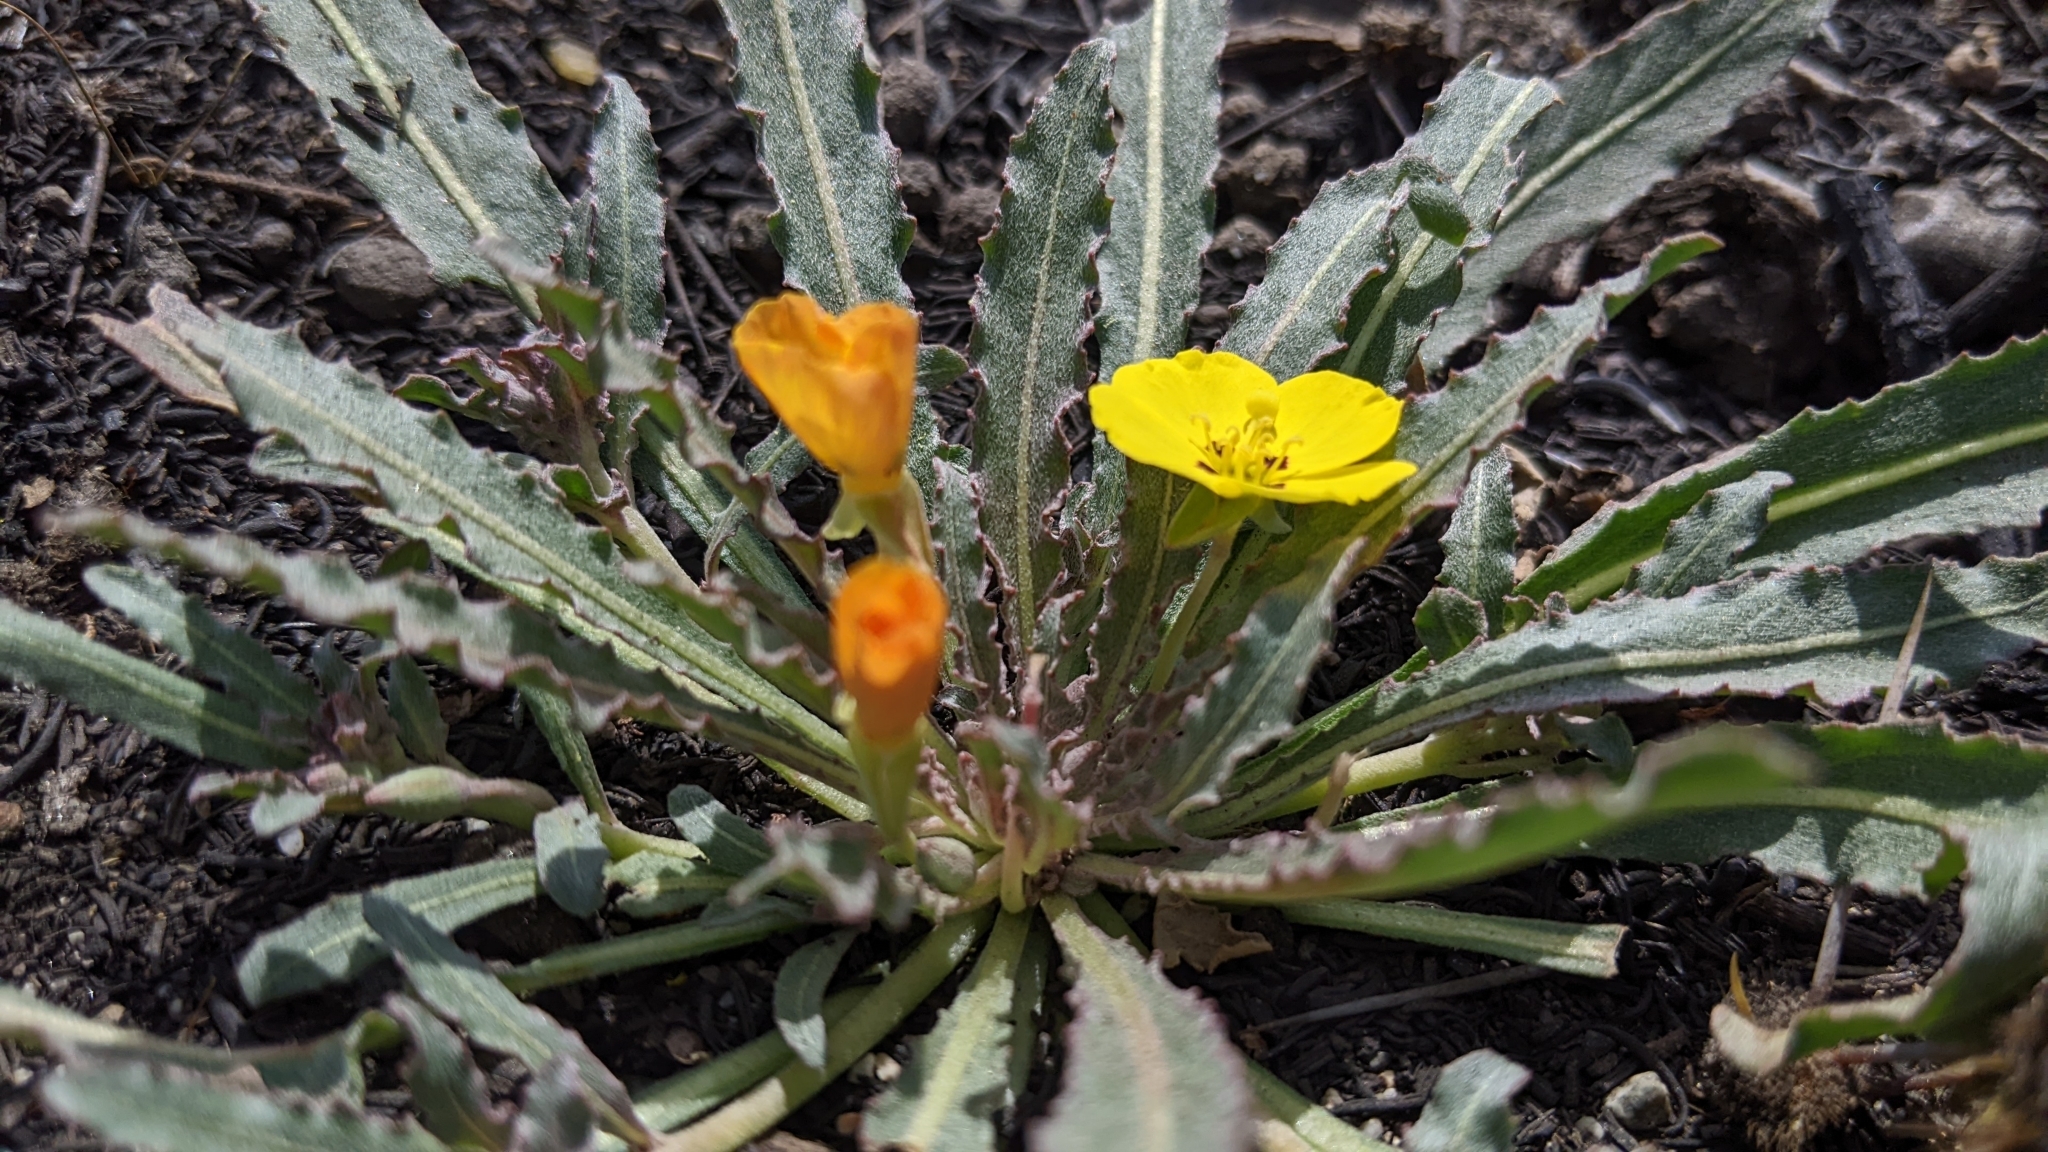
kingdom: Plantae
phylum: Tracheophyta
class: Magnoliopsida
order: Myrtales
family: Onagraceae
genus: Camissoniopsis
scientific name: Camissoniopsis bistorta
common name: Southern suncup
